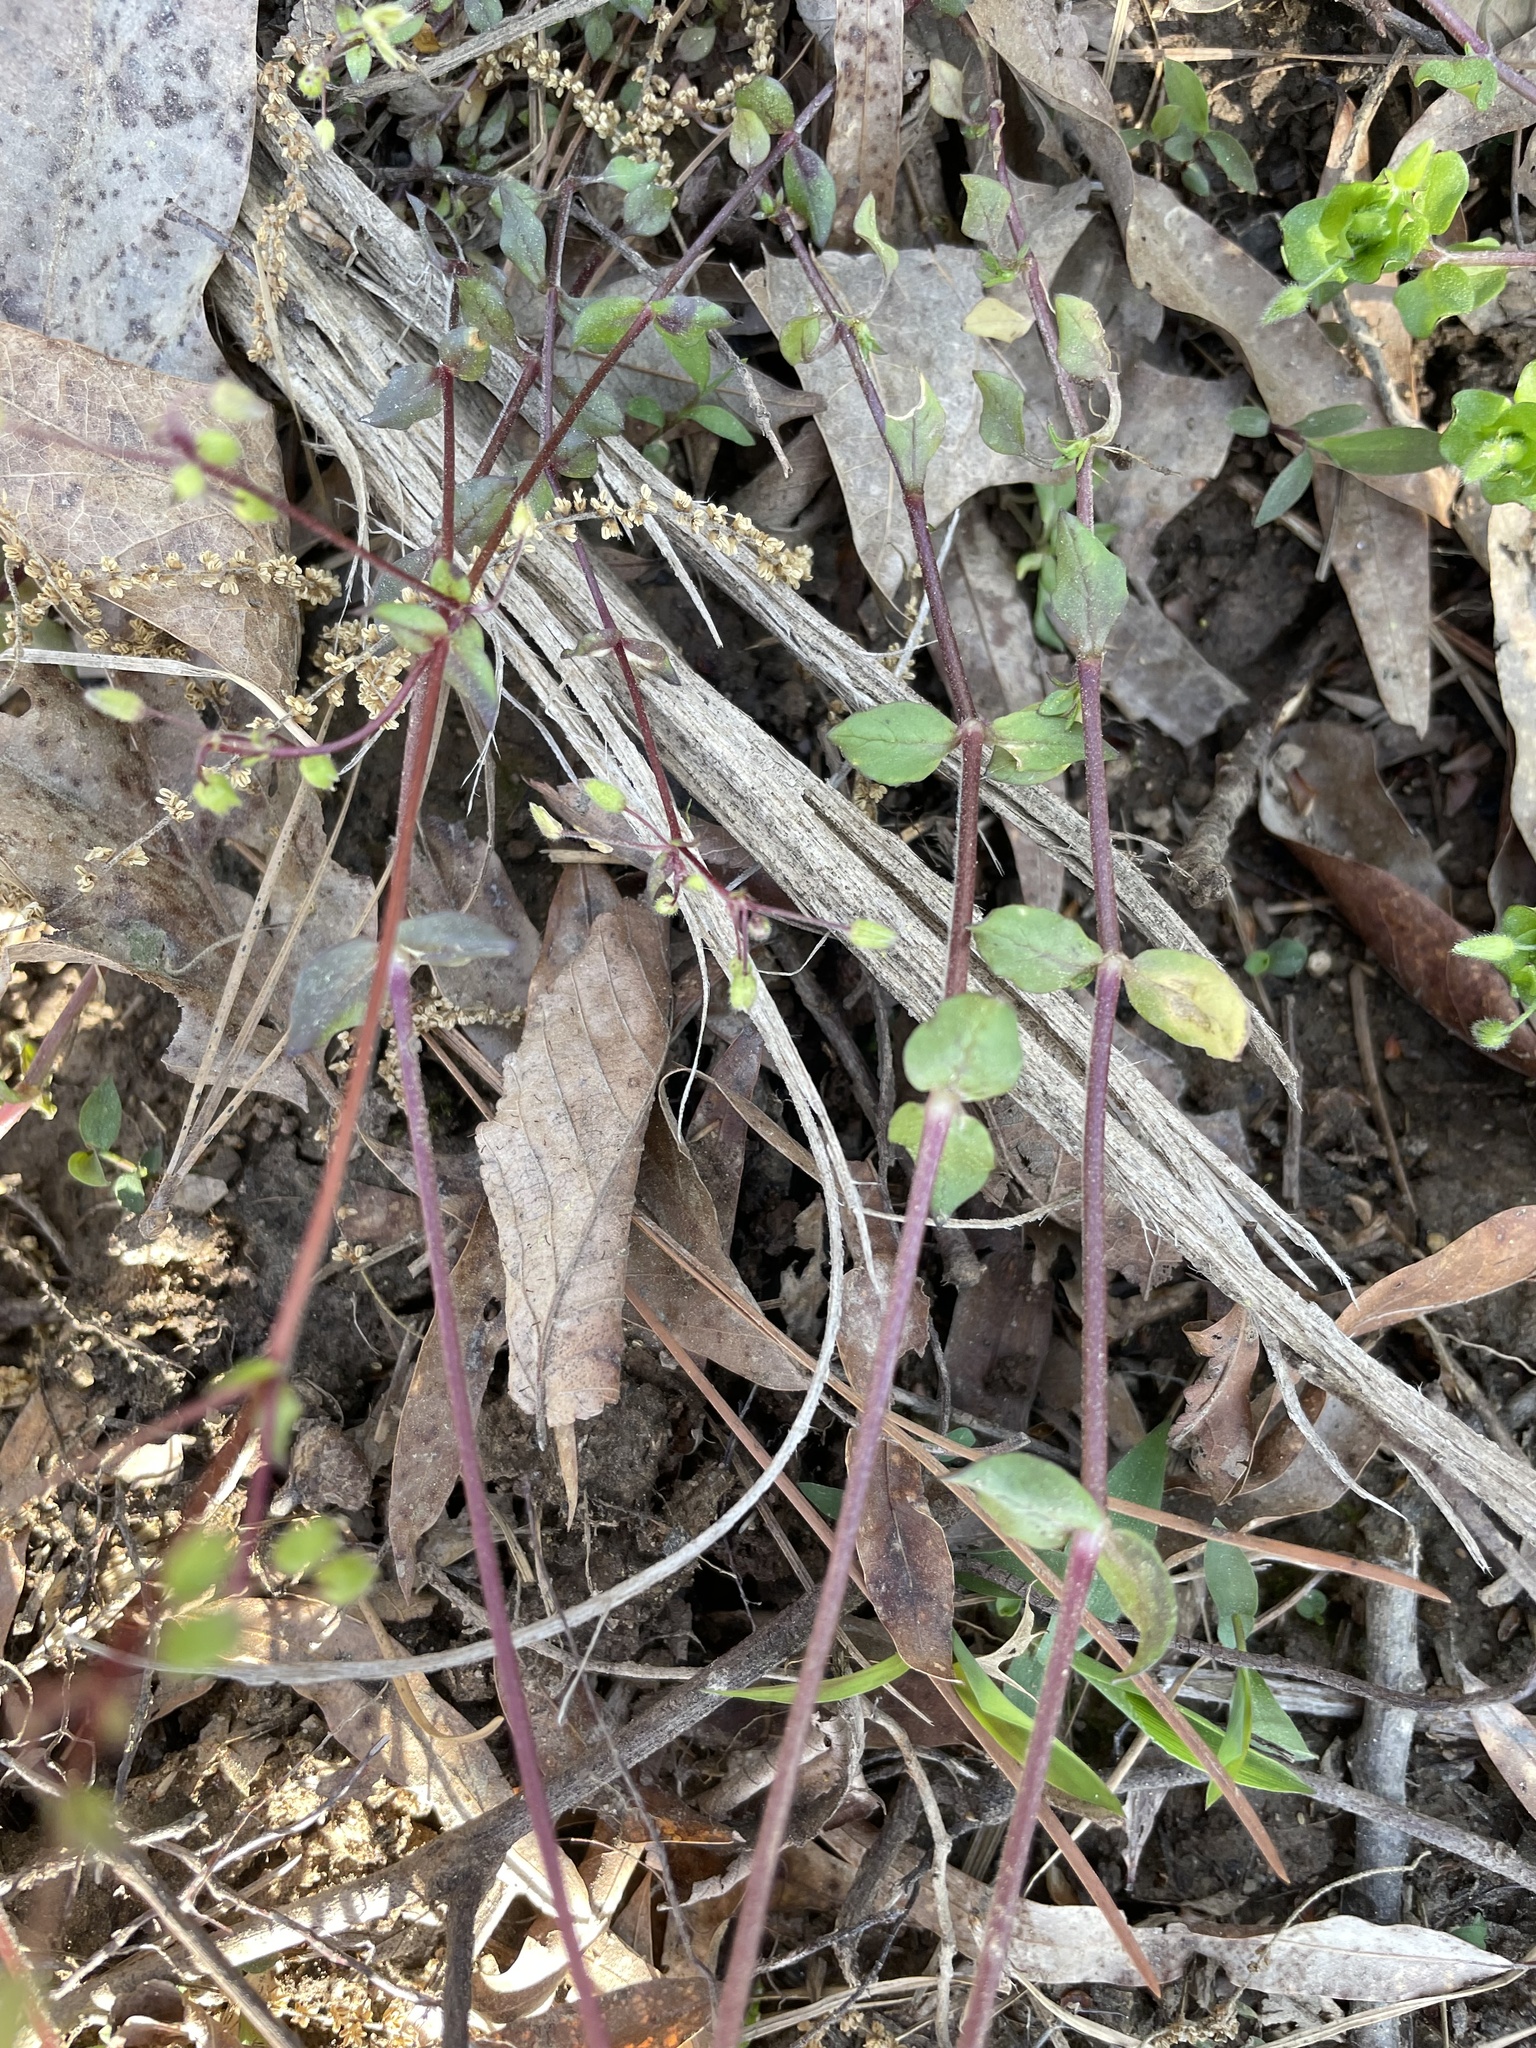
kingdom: Plantae
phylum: Tracheophyta
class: Magnoliopsida
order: Caryophyllales
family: Caryophyllaceae
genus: Stellaria
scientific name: Stellaria media
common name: Common chickweed
